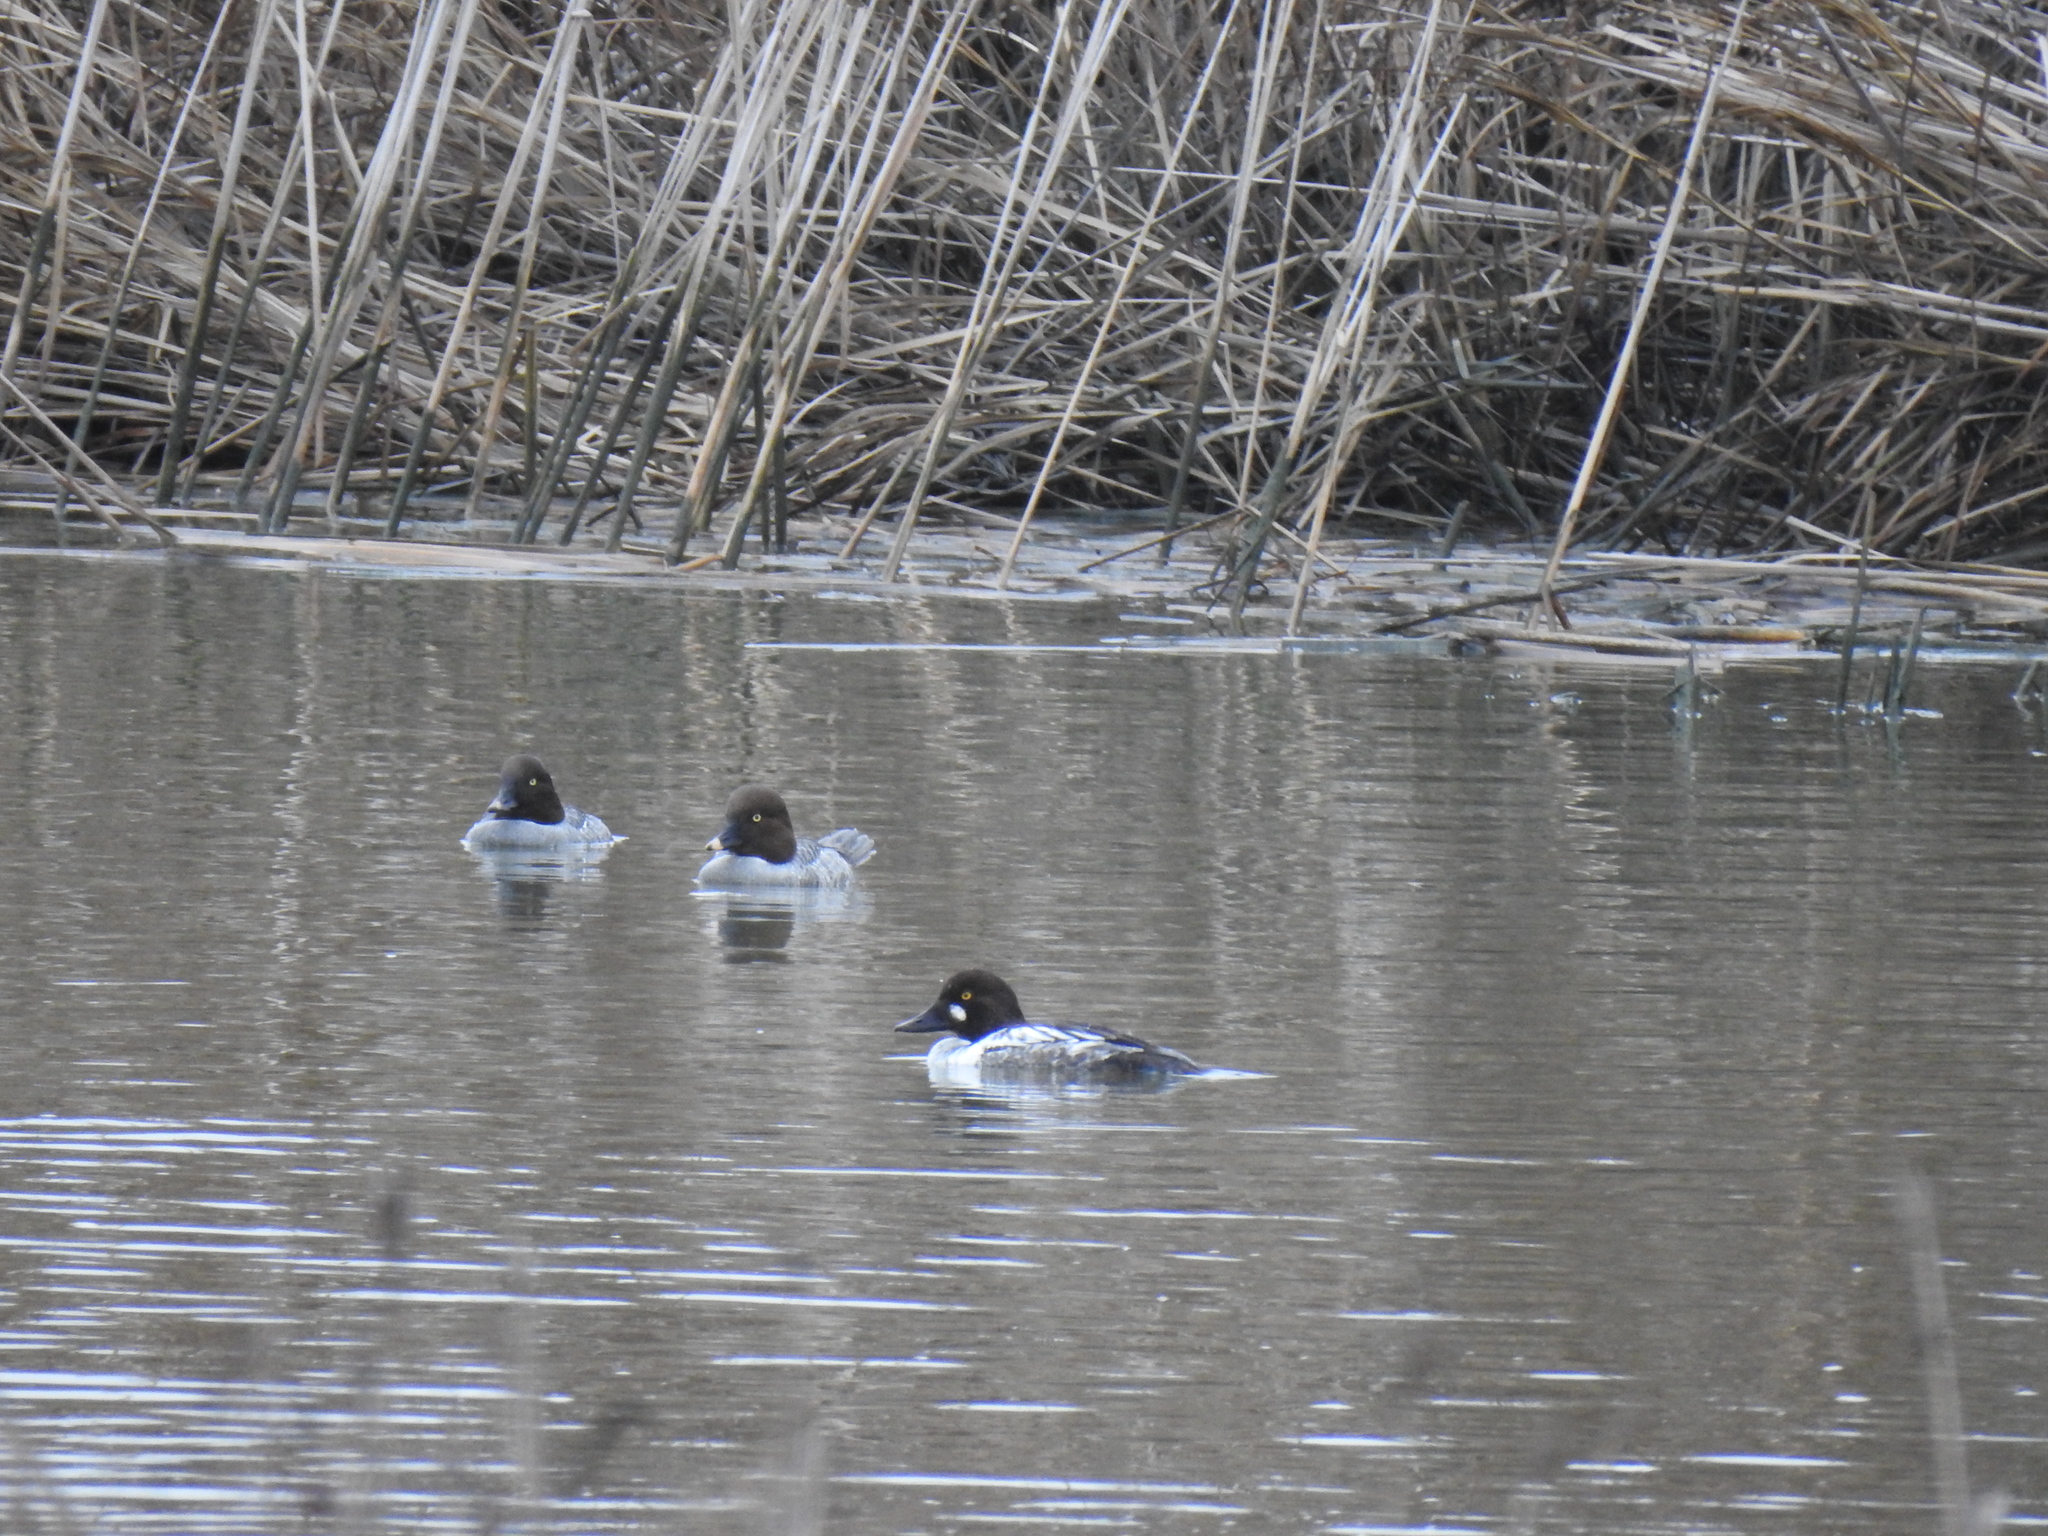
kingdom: Animalia
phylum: Chordata
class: Aves
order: Anseriformes
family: Anatidae
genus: Bucephala
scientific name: Bucephala clangula
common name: Common goldeneye
